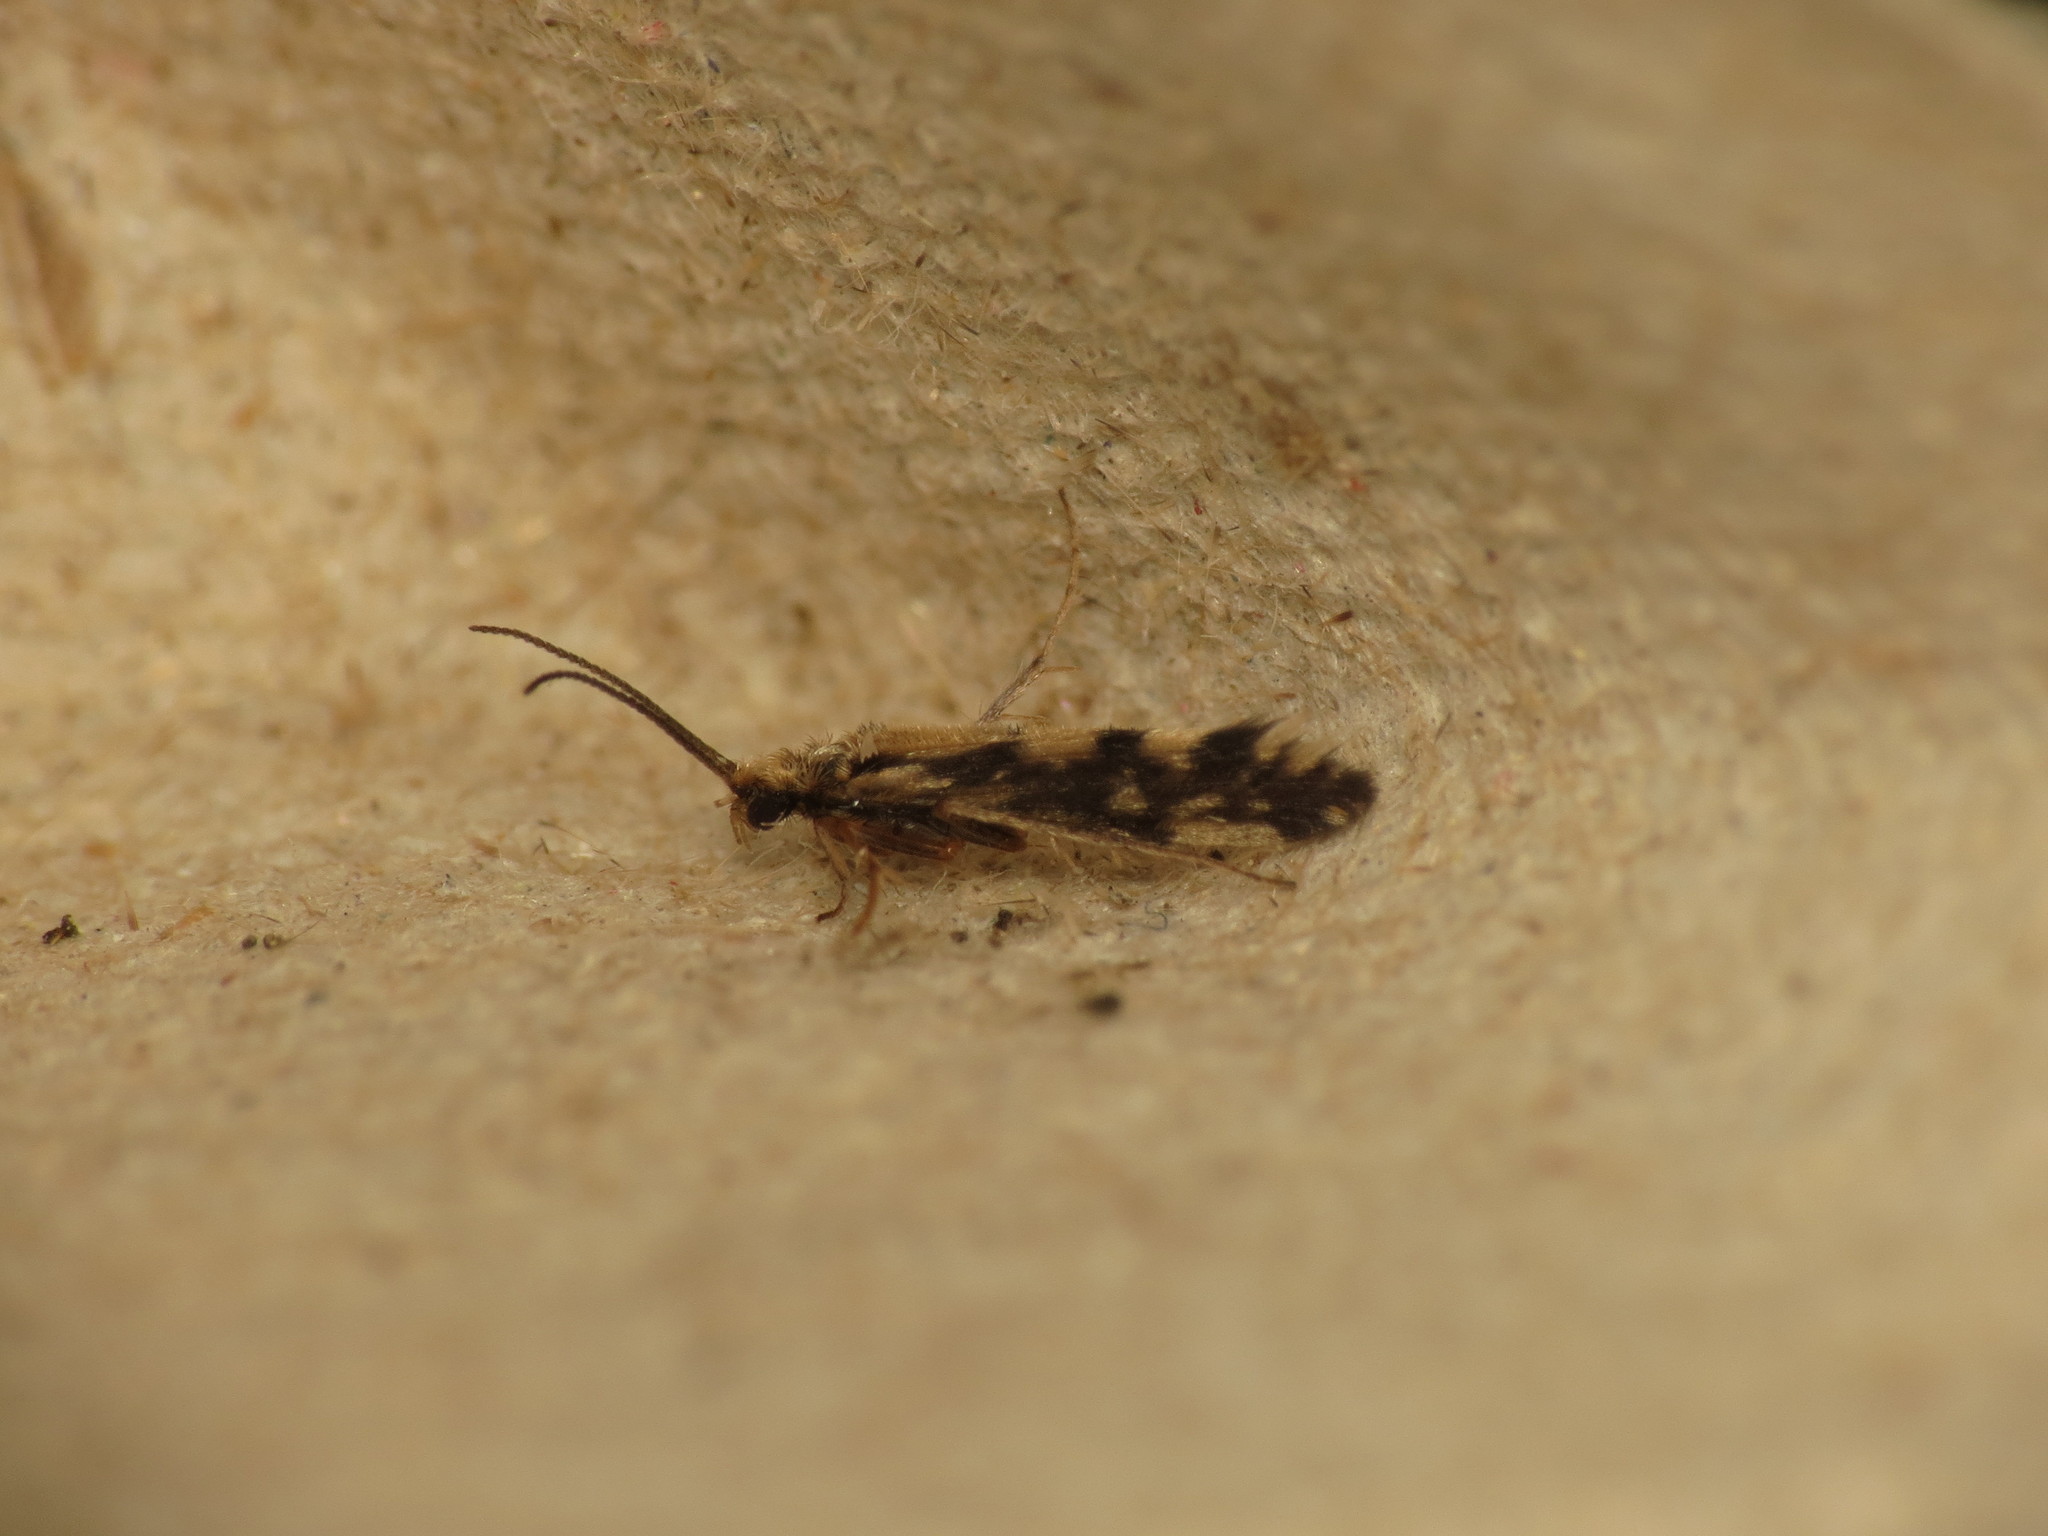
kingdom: Animalia
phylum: Arthropoda
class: Insecta
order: Trichoptera
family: Hydroptilidae
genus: Agraylea
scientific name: Agraylea multipunctata
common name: Salt and pepper microcaddisfly
